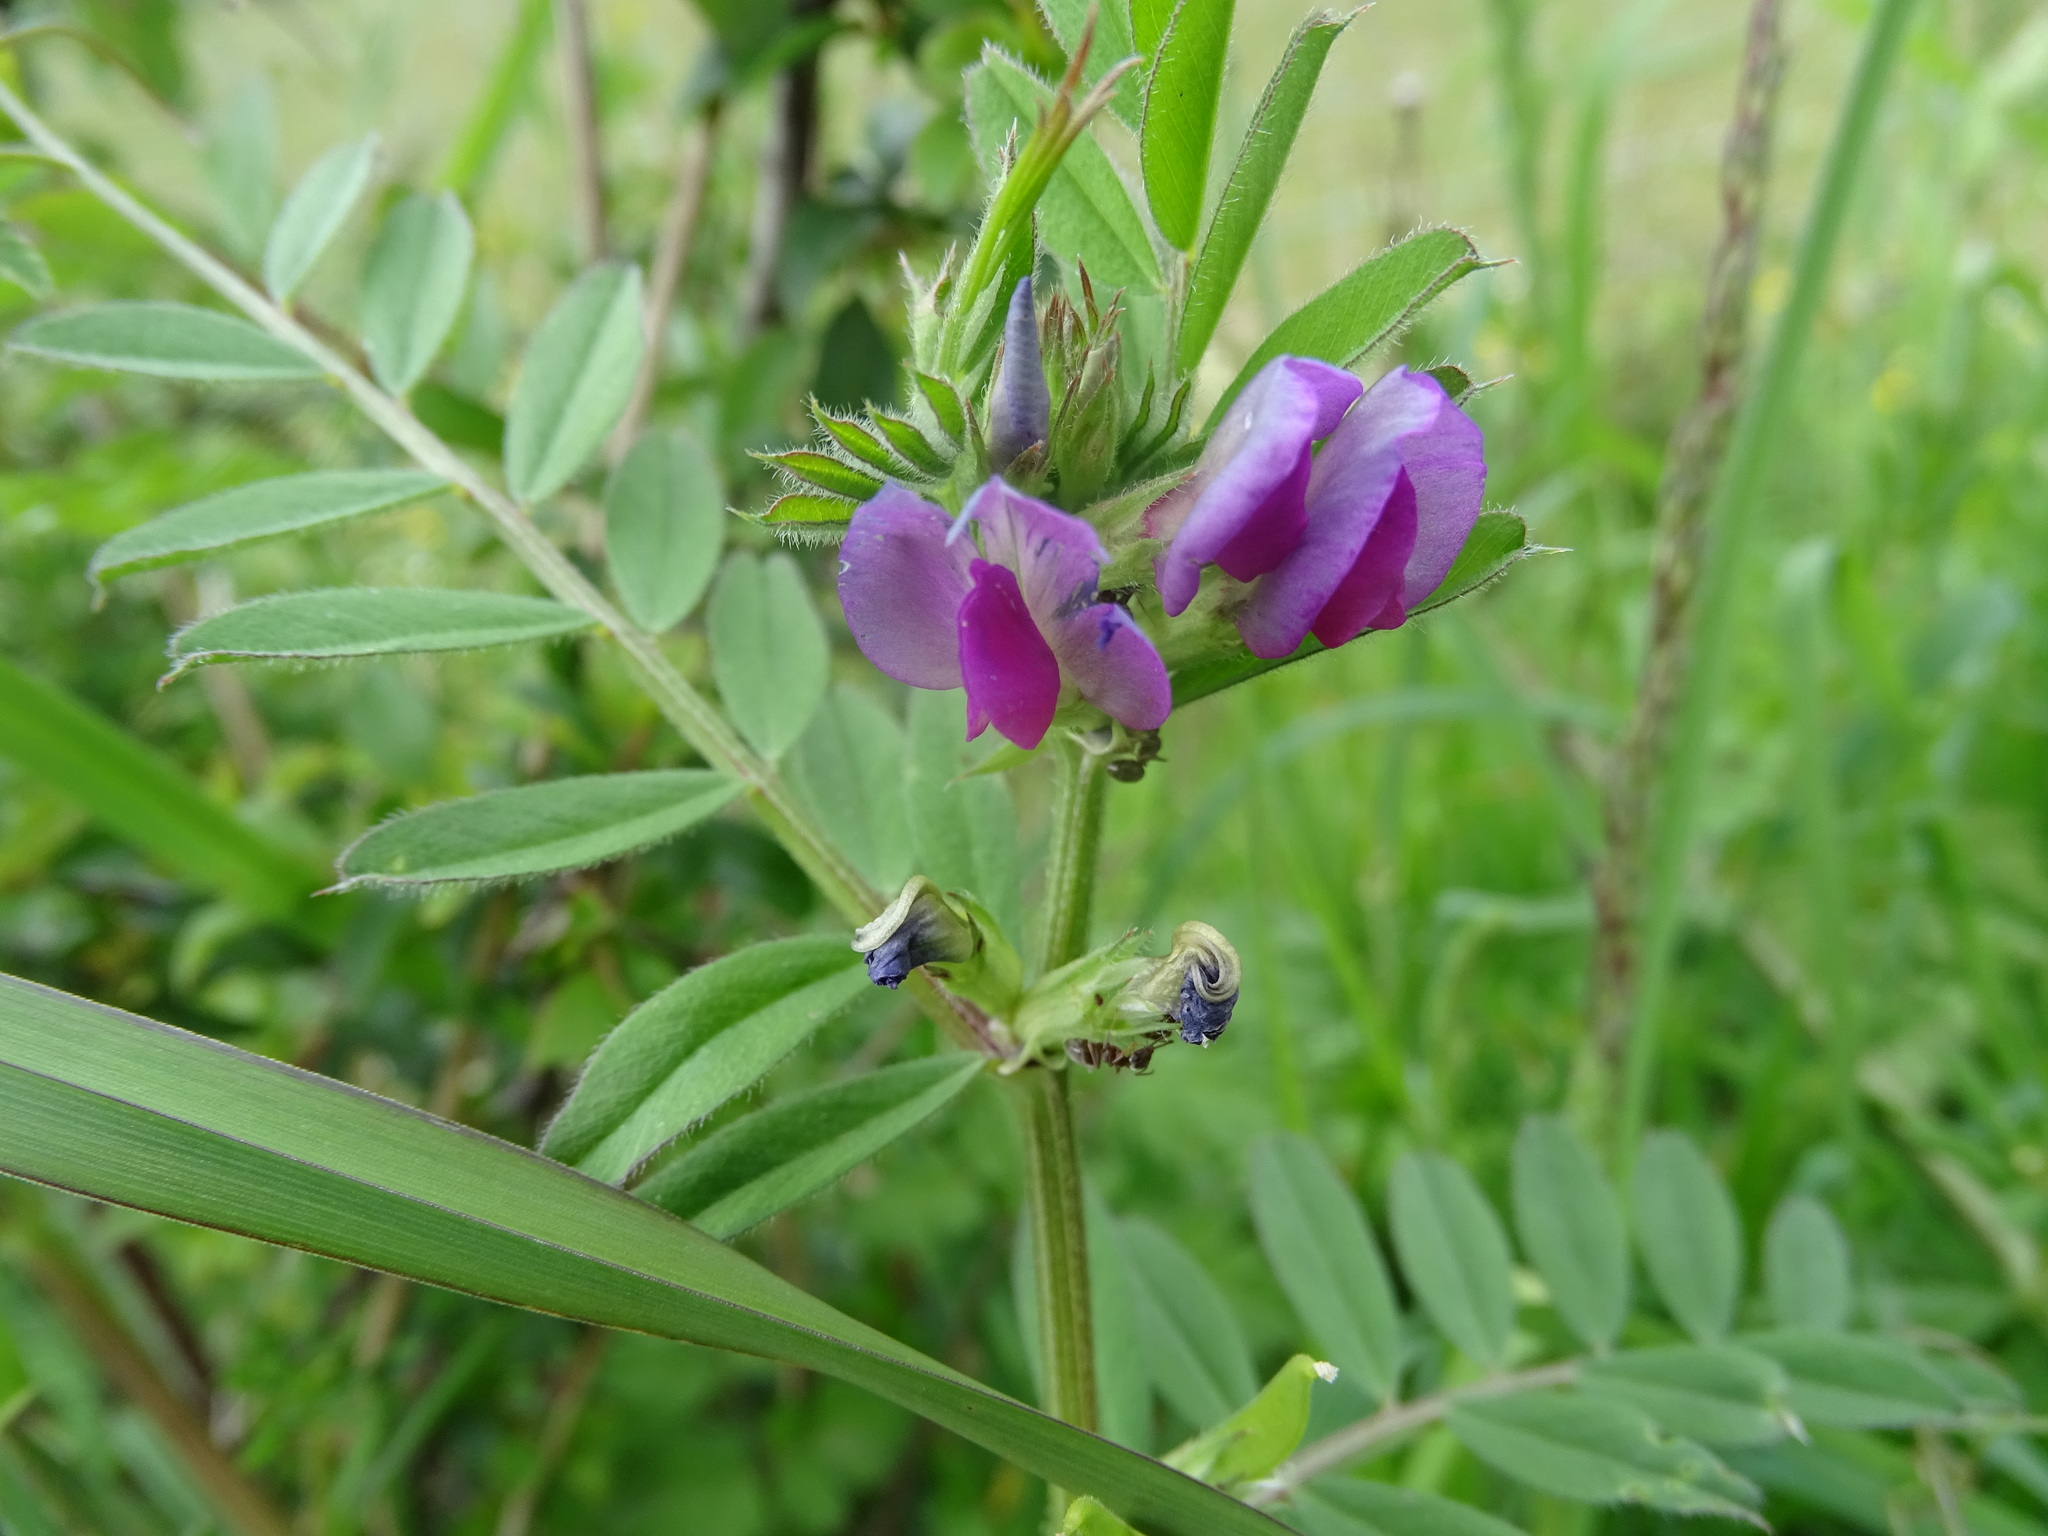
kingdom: Plantae
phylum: Tracheophyta
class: Magnoliopsida
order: Fabales
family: Fabaceae
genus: Vicia
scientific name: Vicia sativa
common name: Garden vetch
